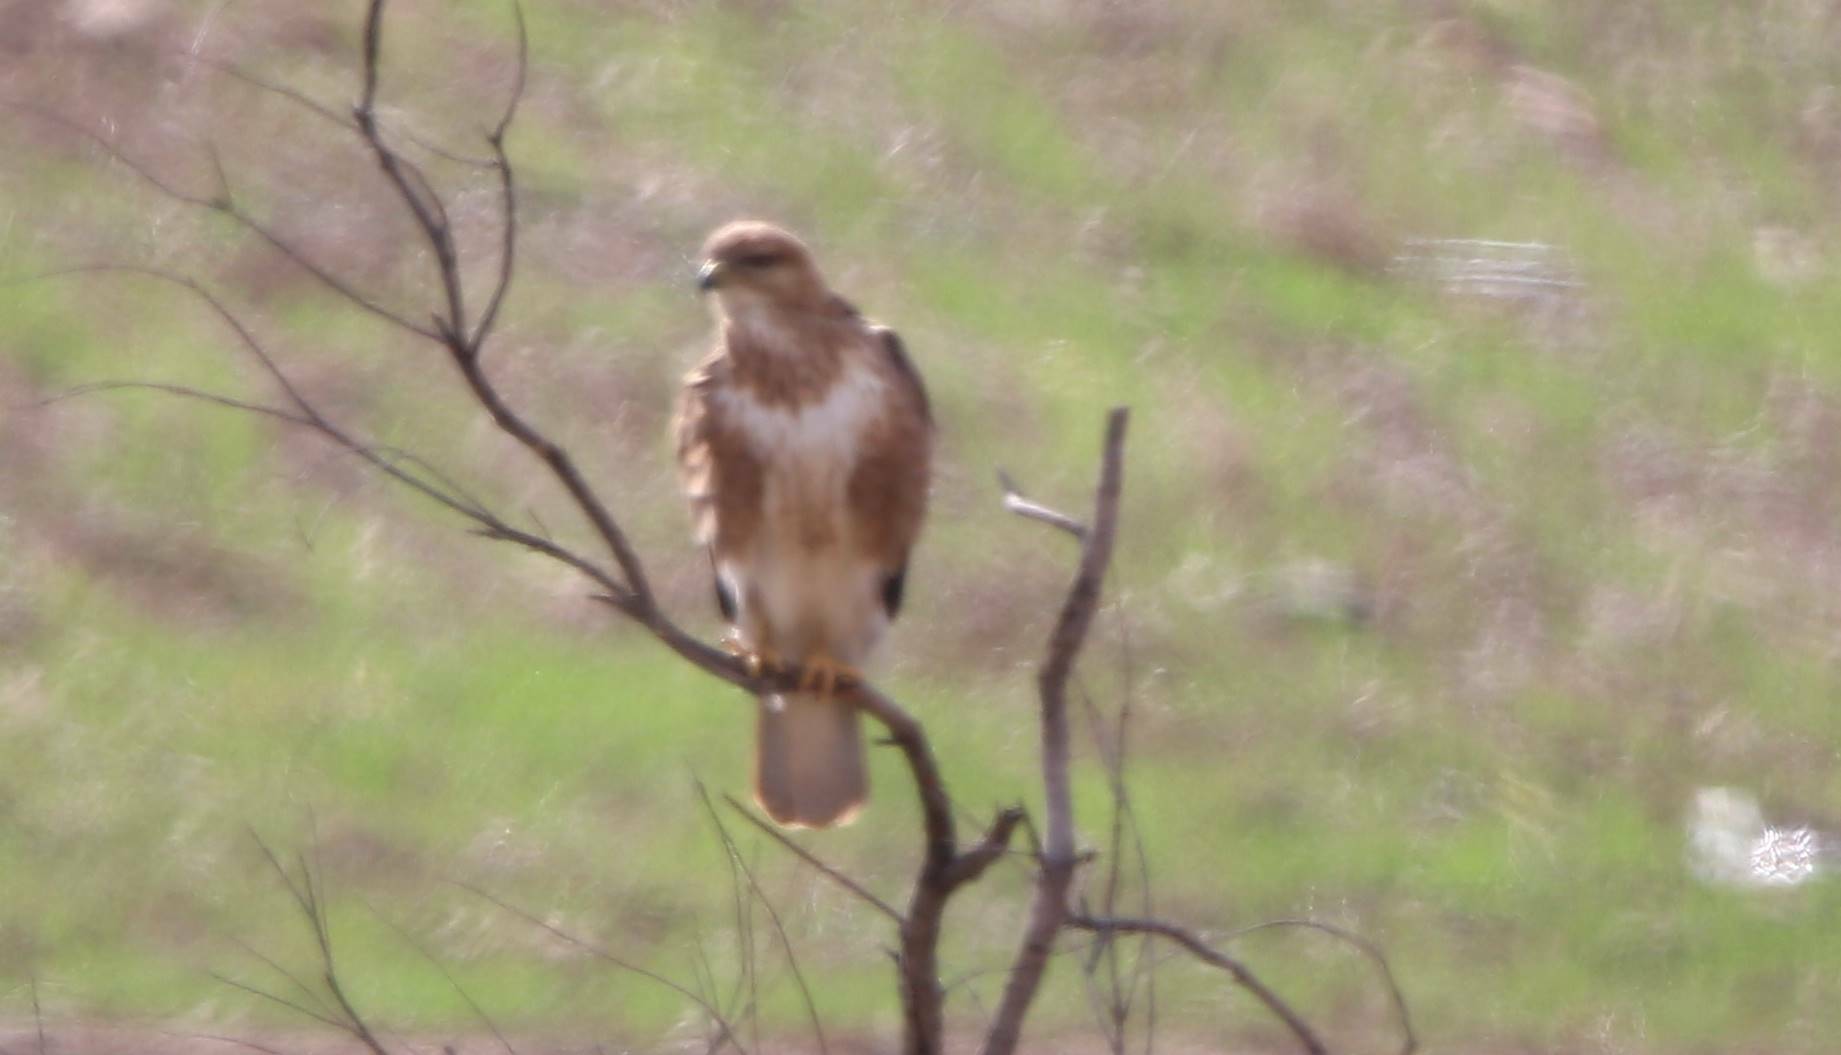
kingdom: Animalia
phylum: Chordata
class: Aves
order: Accipitriformes
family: Accipitridae
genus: Buteo
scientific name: Buteo rufinus
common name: Long-legged buzzard
